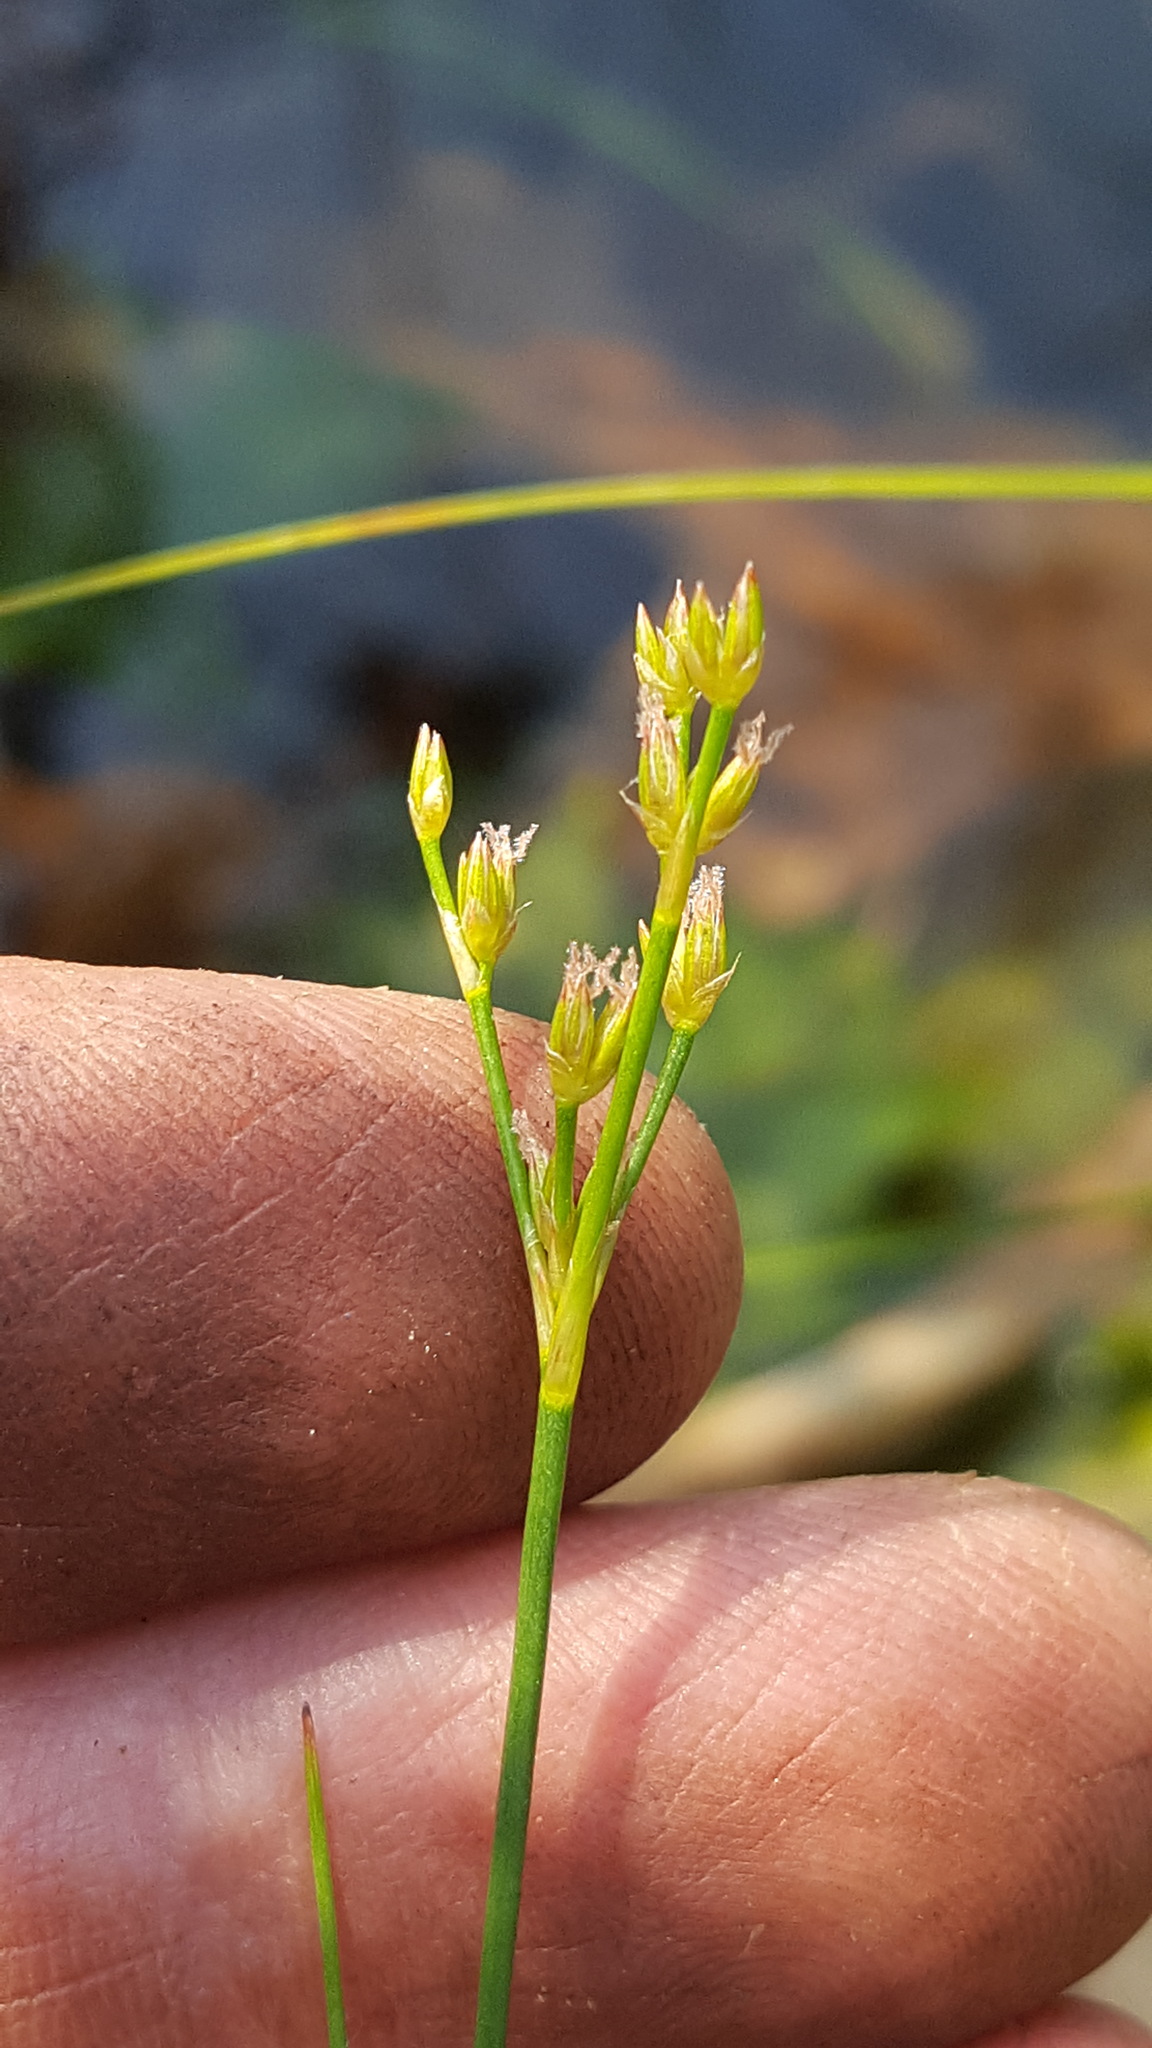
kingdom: Plantae
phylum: Tracheophyta
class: Liliopsida
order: Poales
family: Juncaceae
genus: Juncus
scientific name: Juncus pelocarpus
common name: Brown-fruited rush
